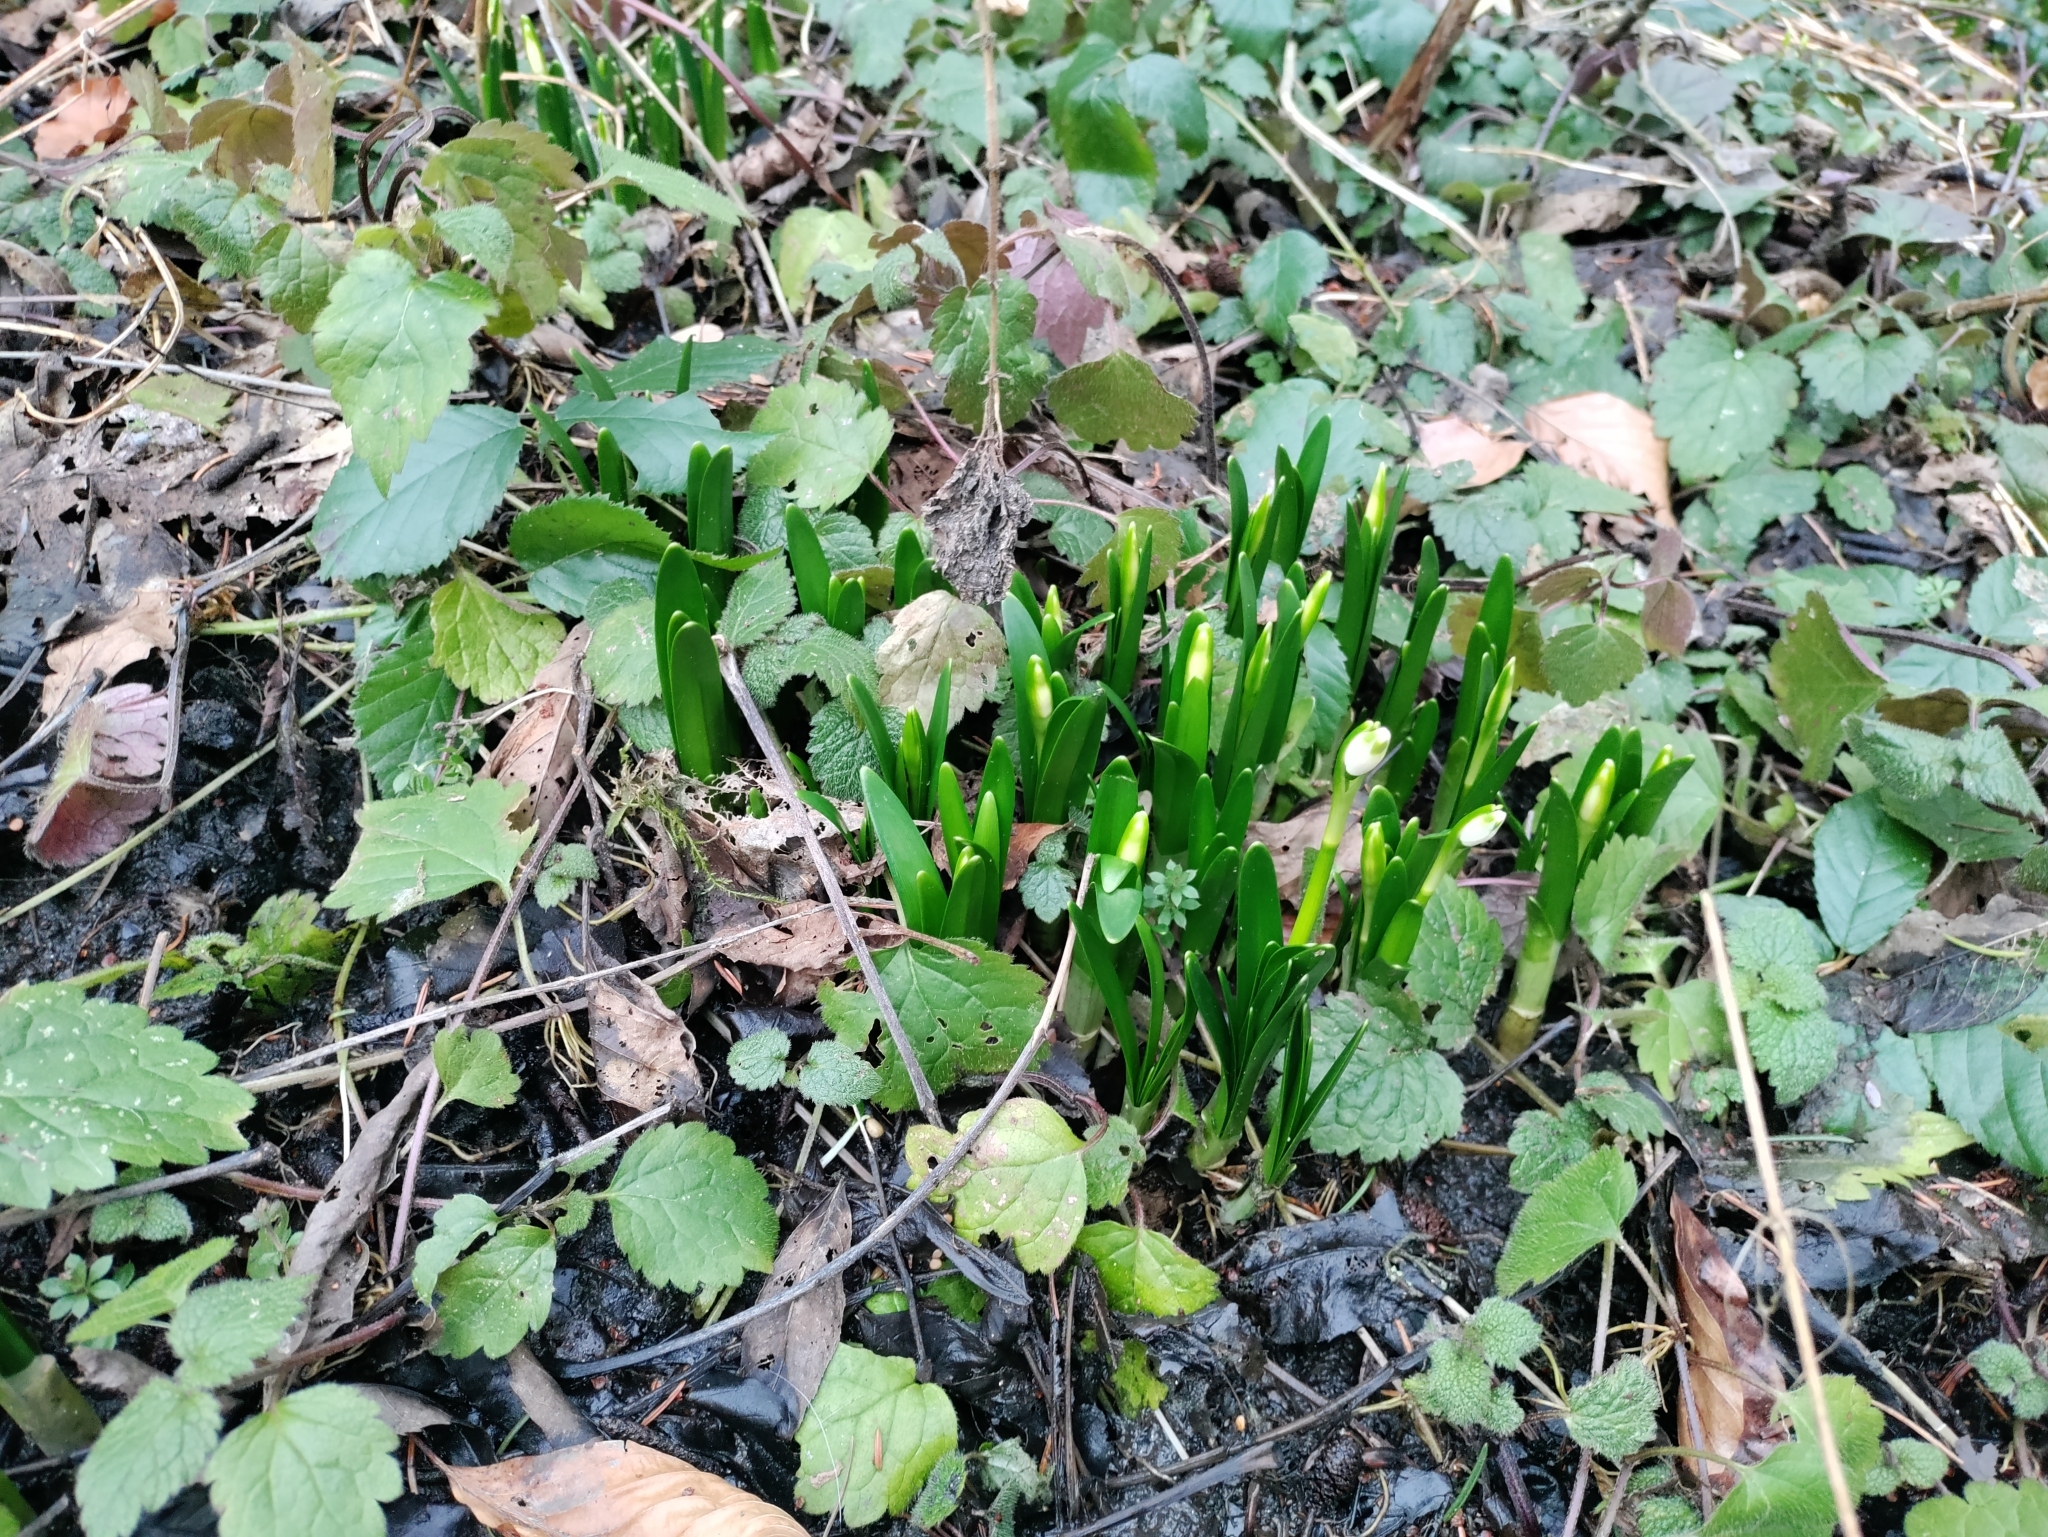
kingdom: Plantae
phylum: Tracheophyta
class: Liliopsida
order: Asparagales
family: Amaryllidaceae
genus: Leucojum
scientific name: Leucojum vernum
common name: Spring snowflake
